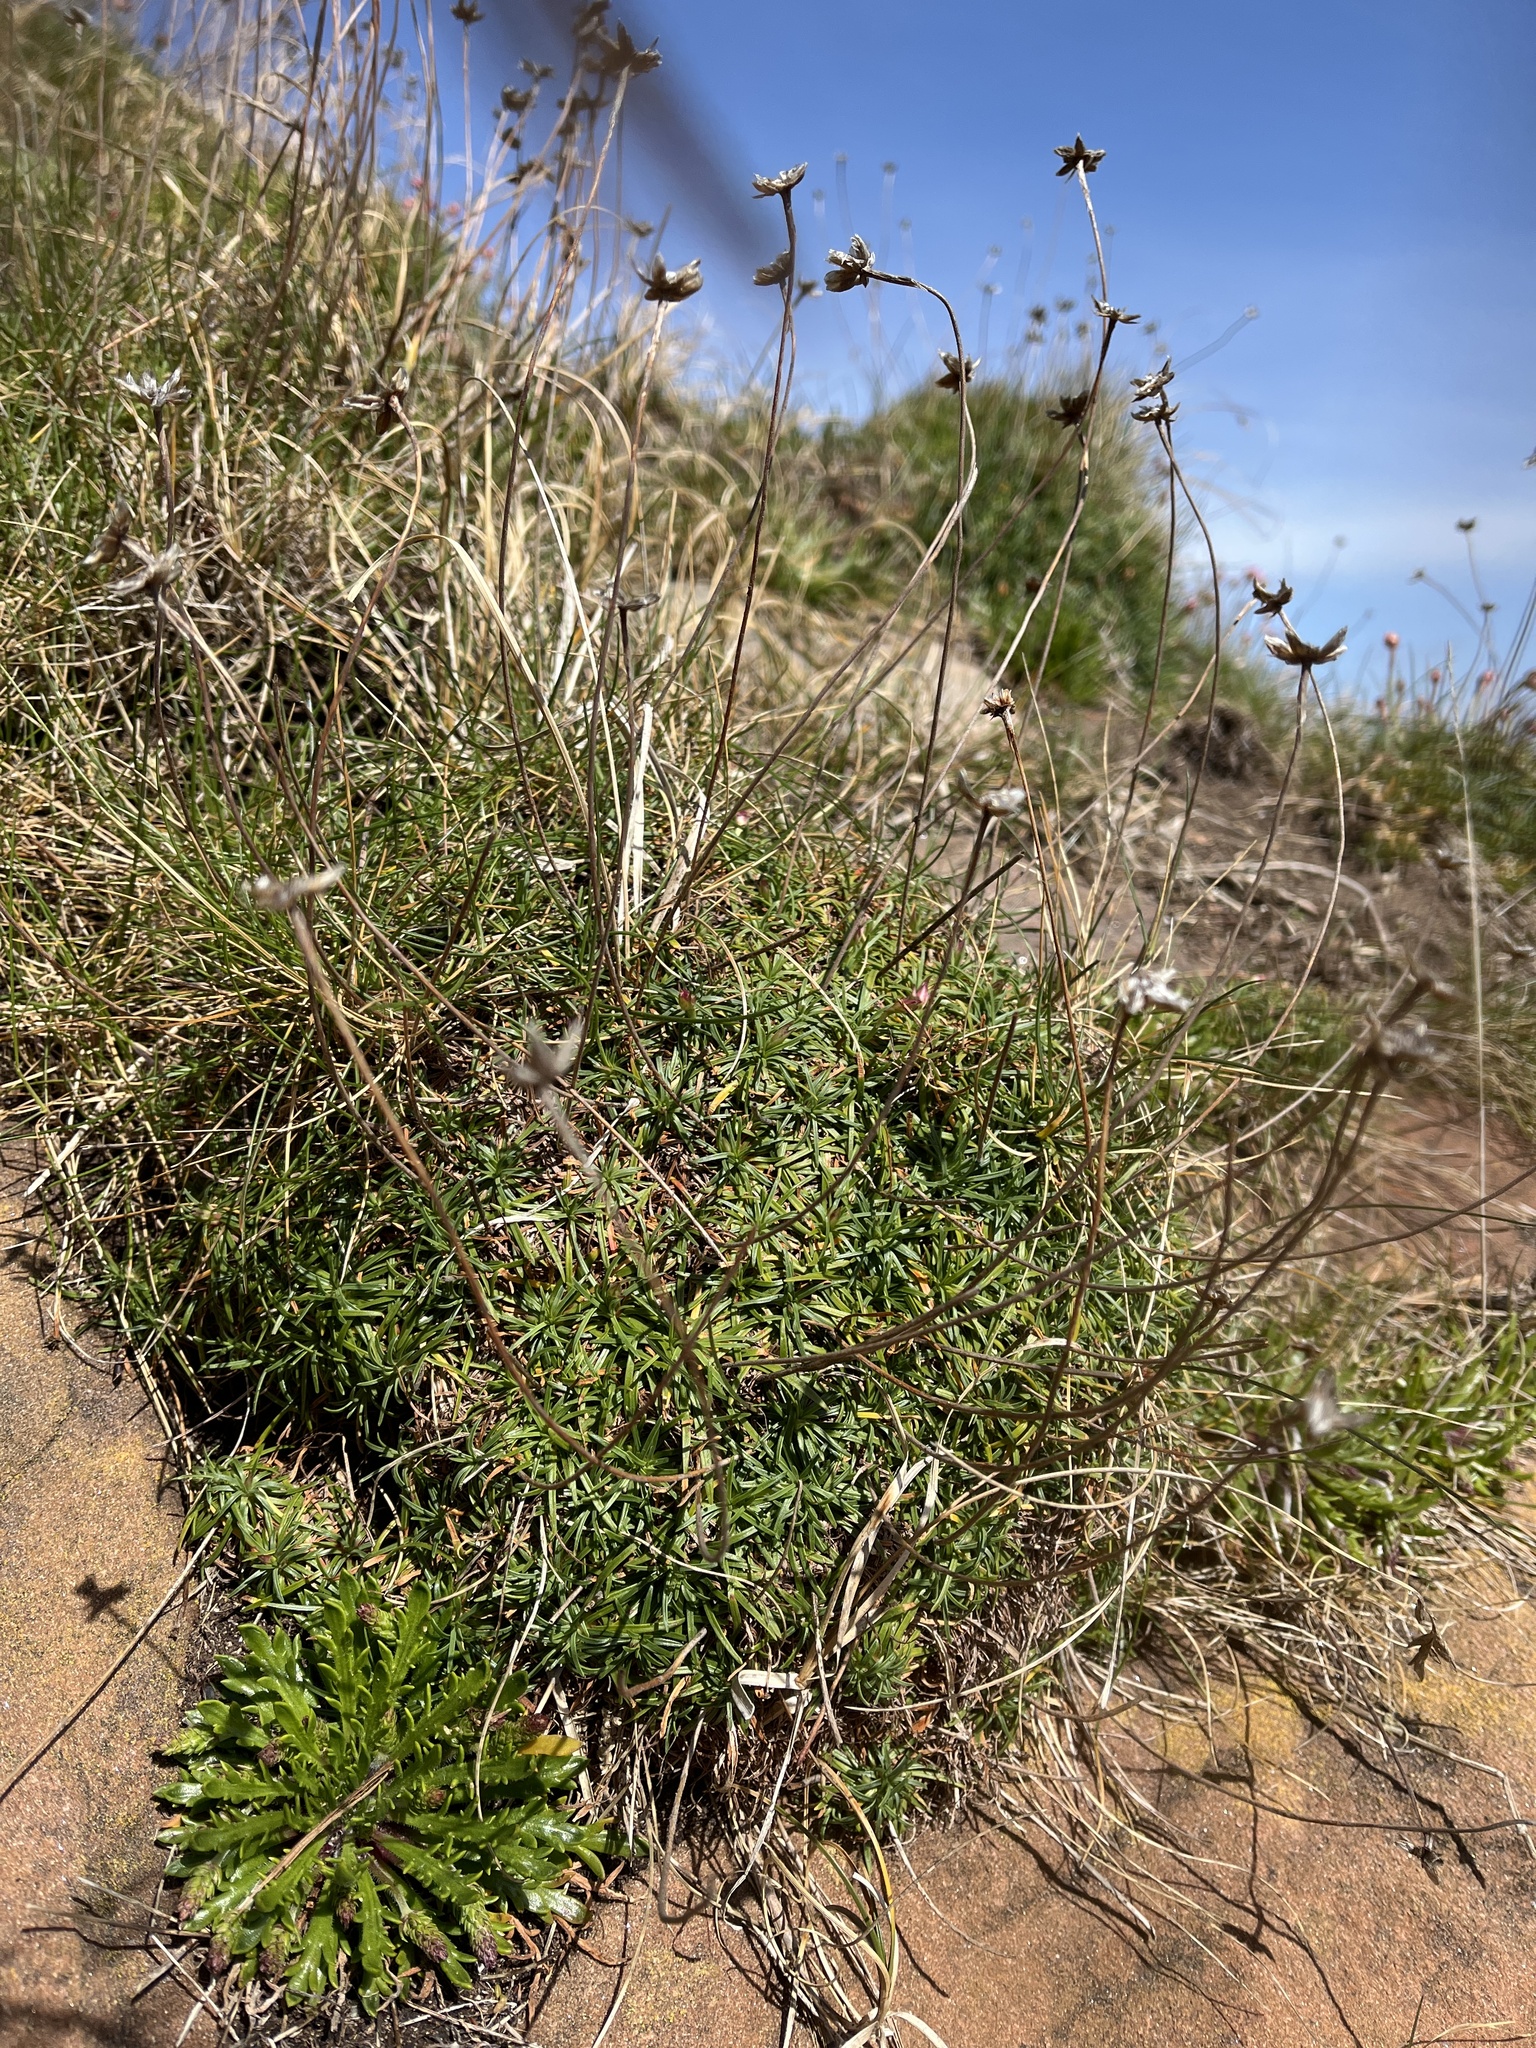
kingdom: Plantae
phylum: Tracheophyta
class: Magnoliopsida
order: Caryophyllales
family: Plumbaginaceae
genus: Armeria
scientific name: Armeria maritima
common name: Thrift
